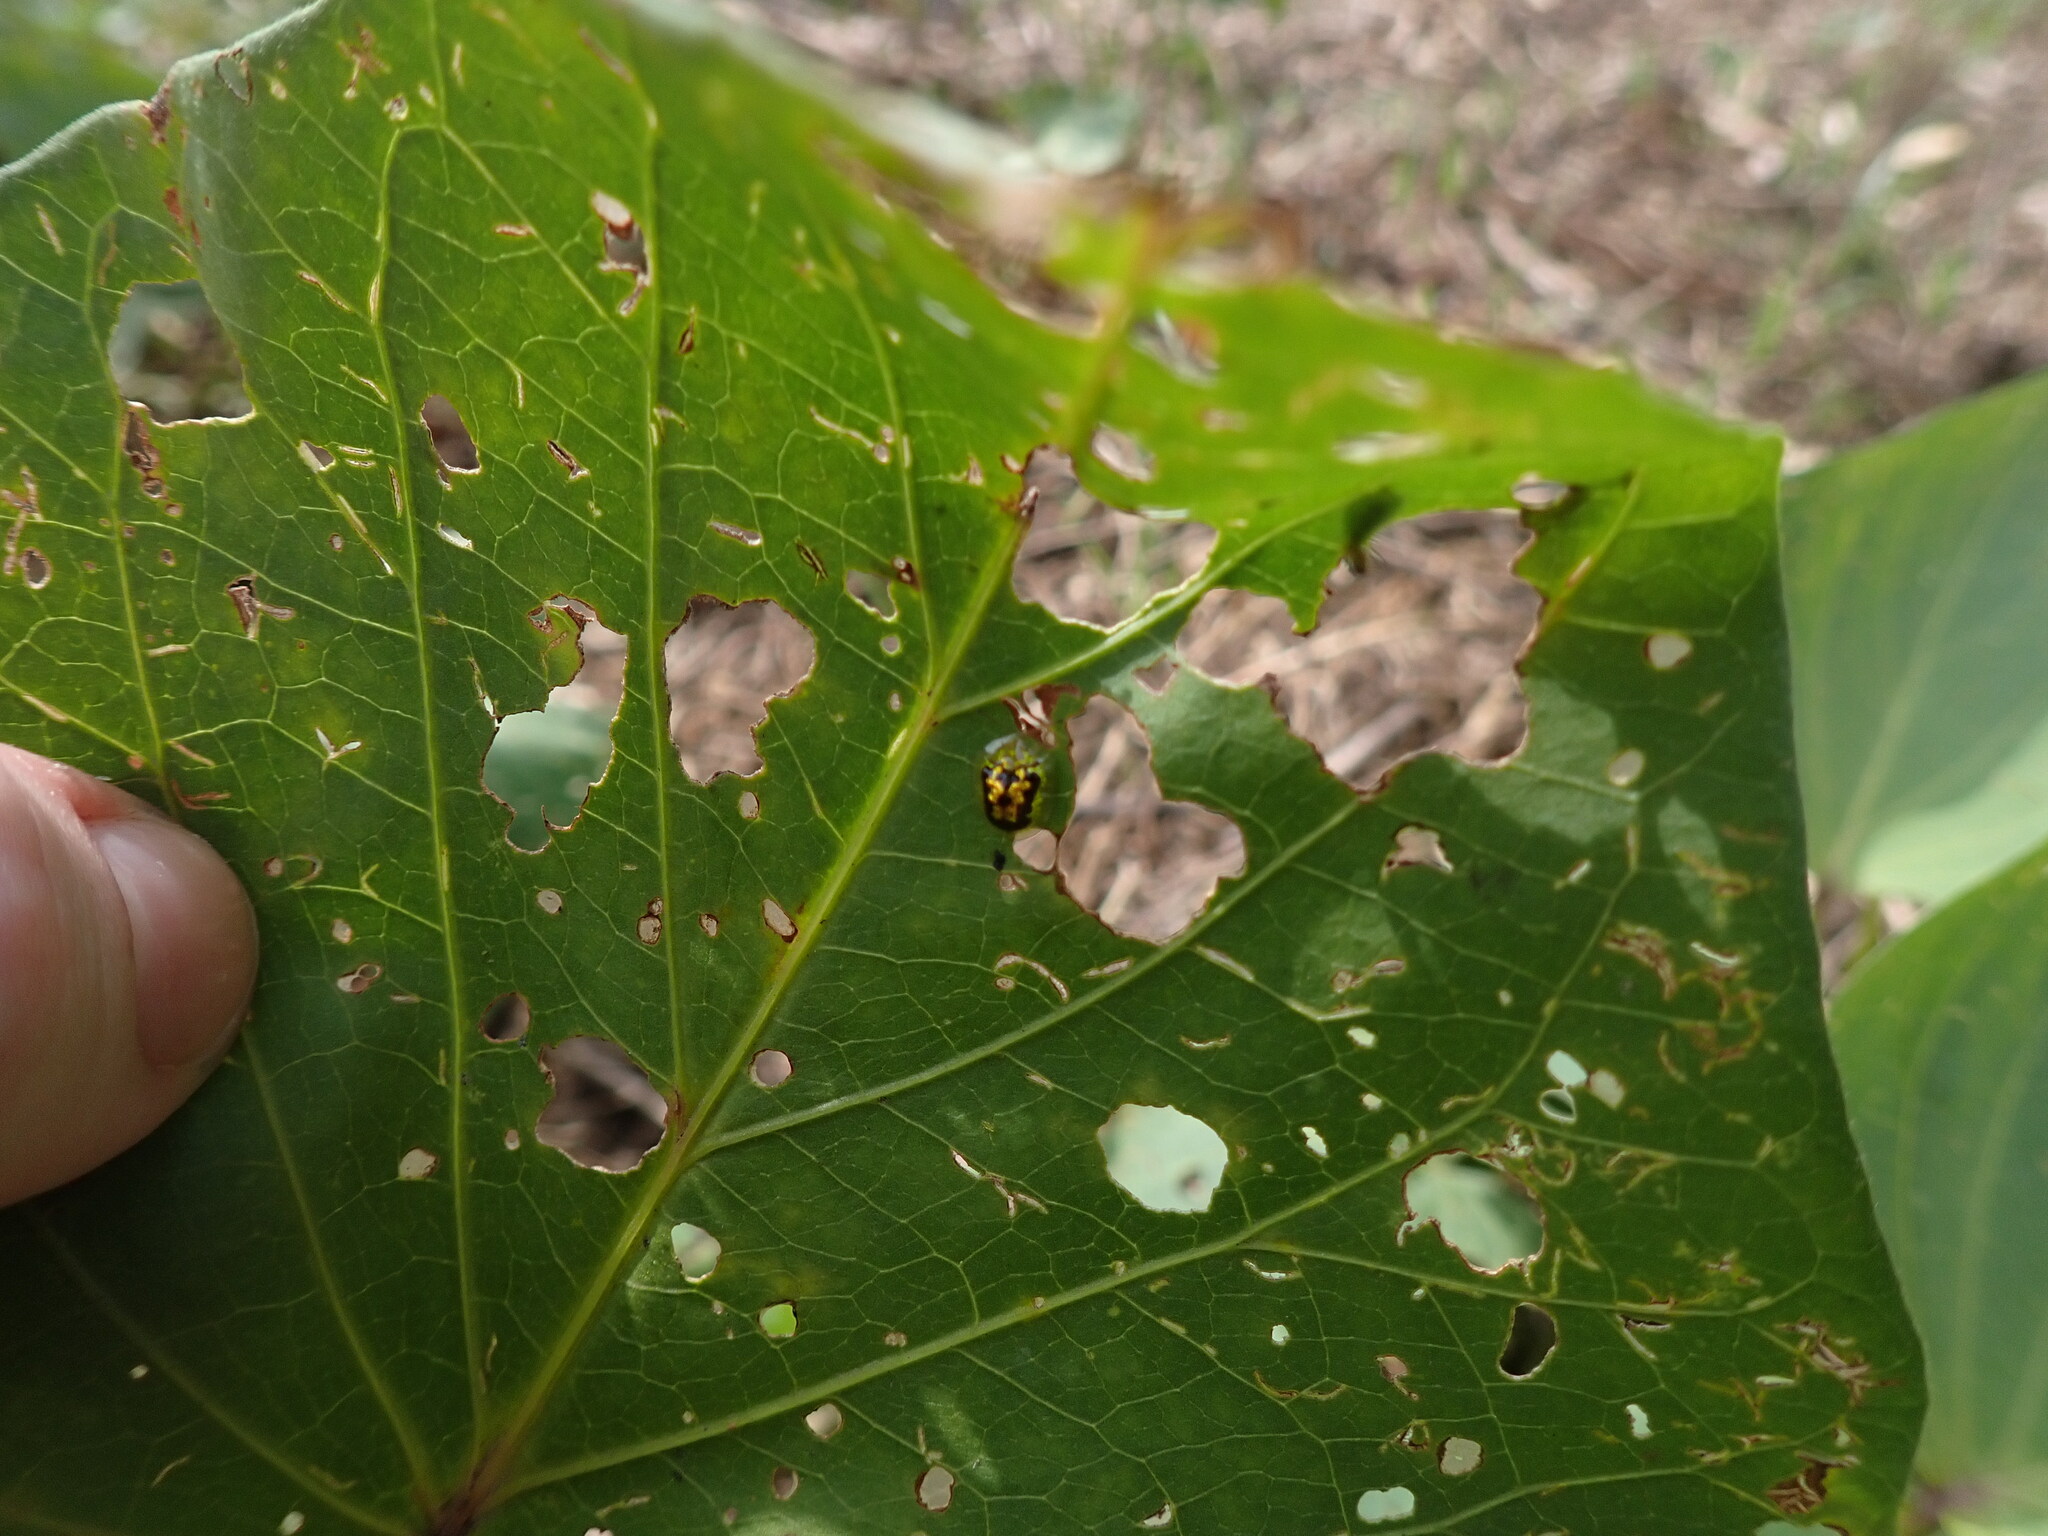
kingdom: Animalia
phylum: Arthropoda
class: Insecta
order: Coleoptera
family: Chrysomelidae
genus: Cassida
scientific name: Cassida diomma
